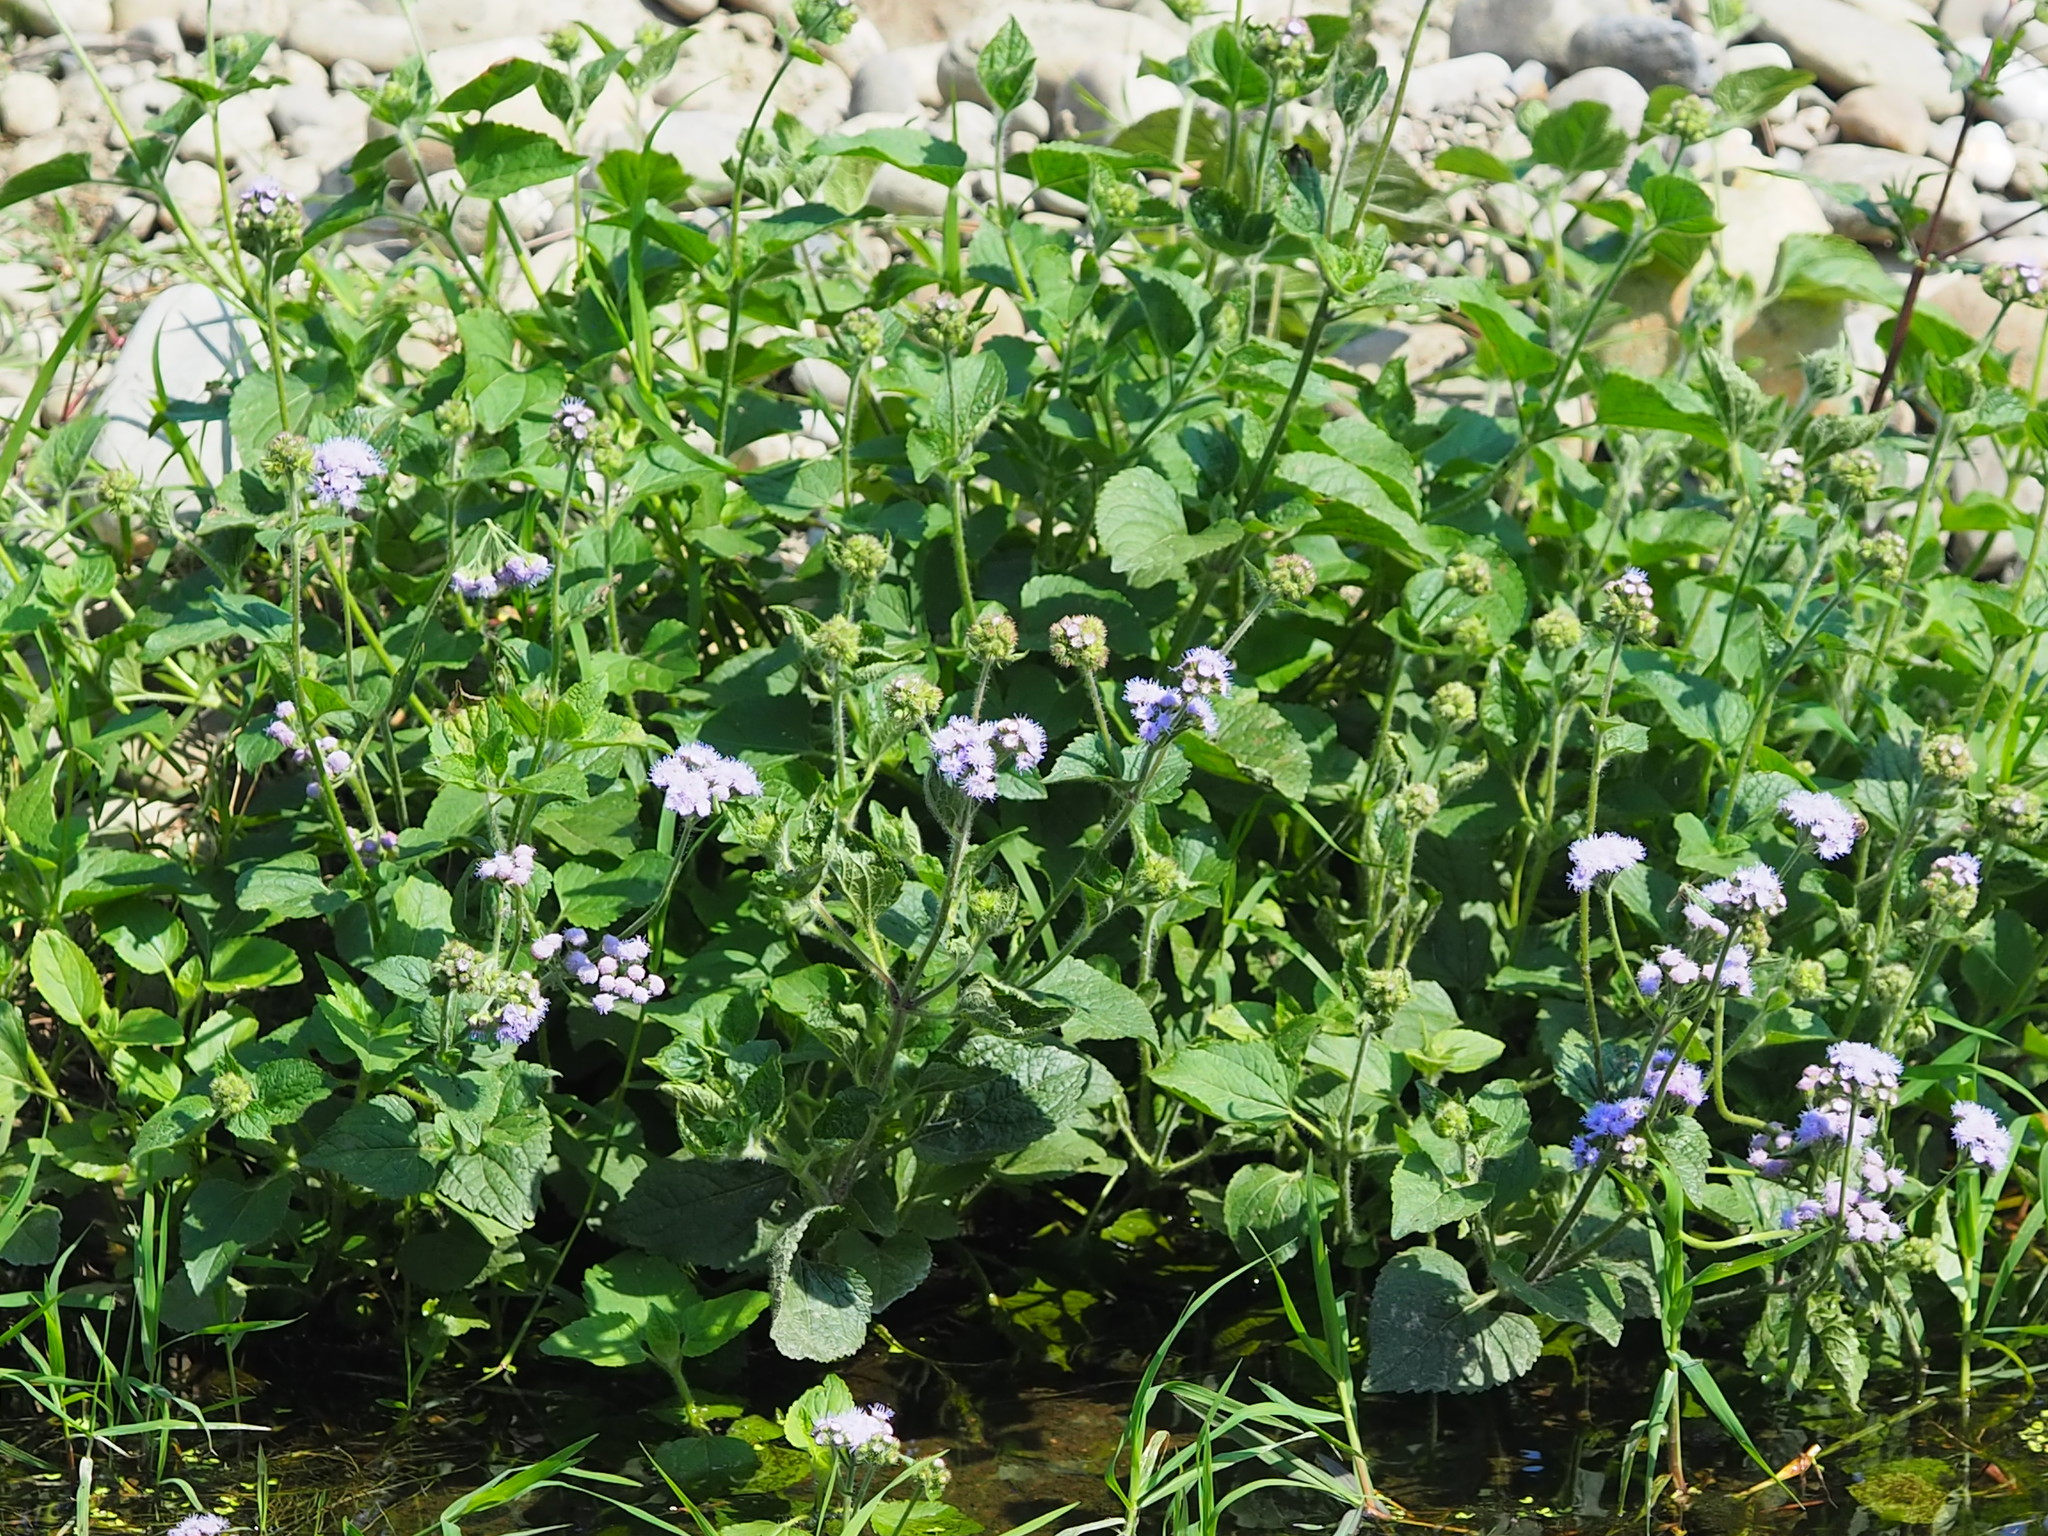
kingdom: Plantae
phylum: Tracheophyta
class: Magnoliopsida
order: Asterales
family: Asteraceae
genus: Ageratum
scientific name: Ageratum houstonianum
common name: Bluemink
